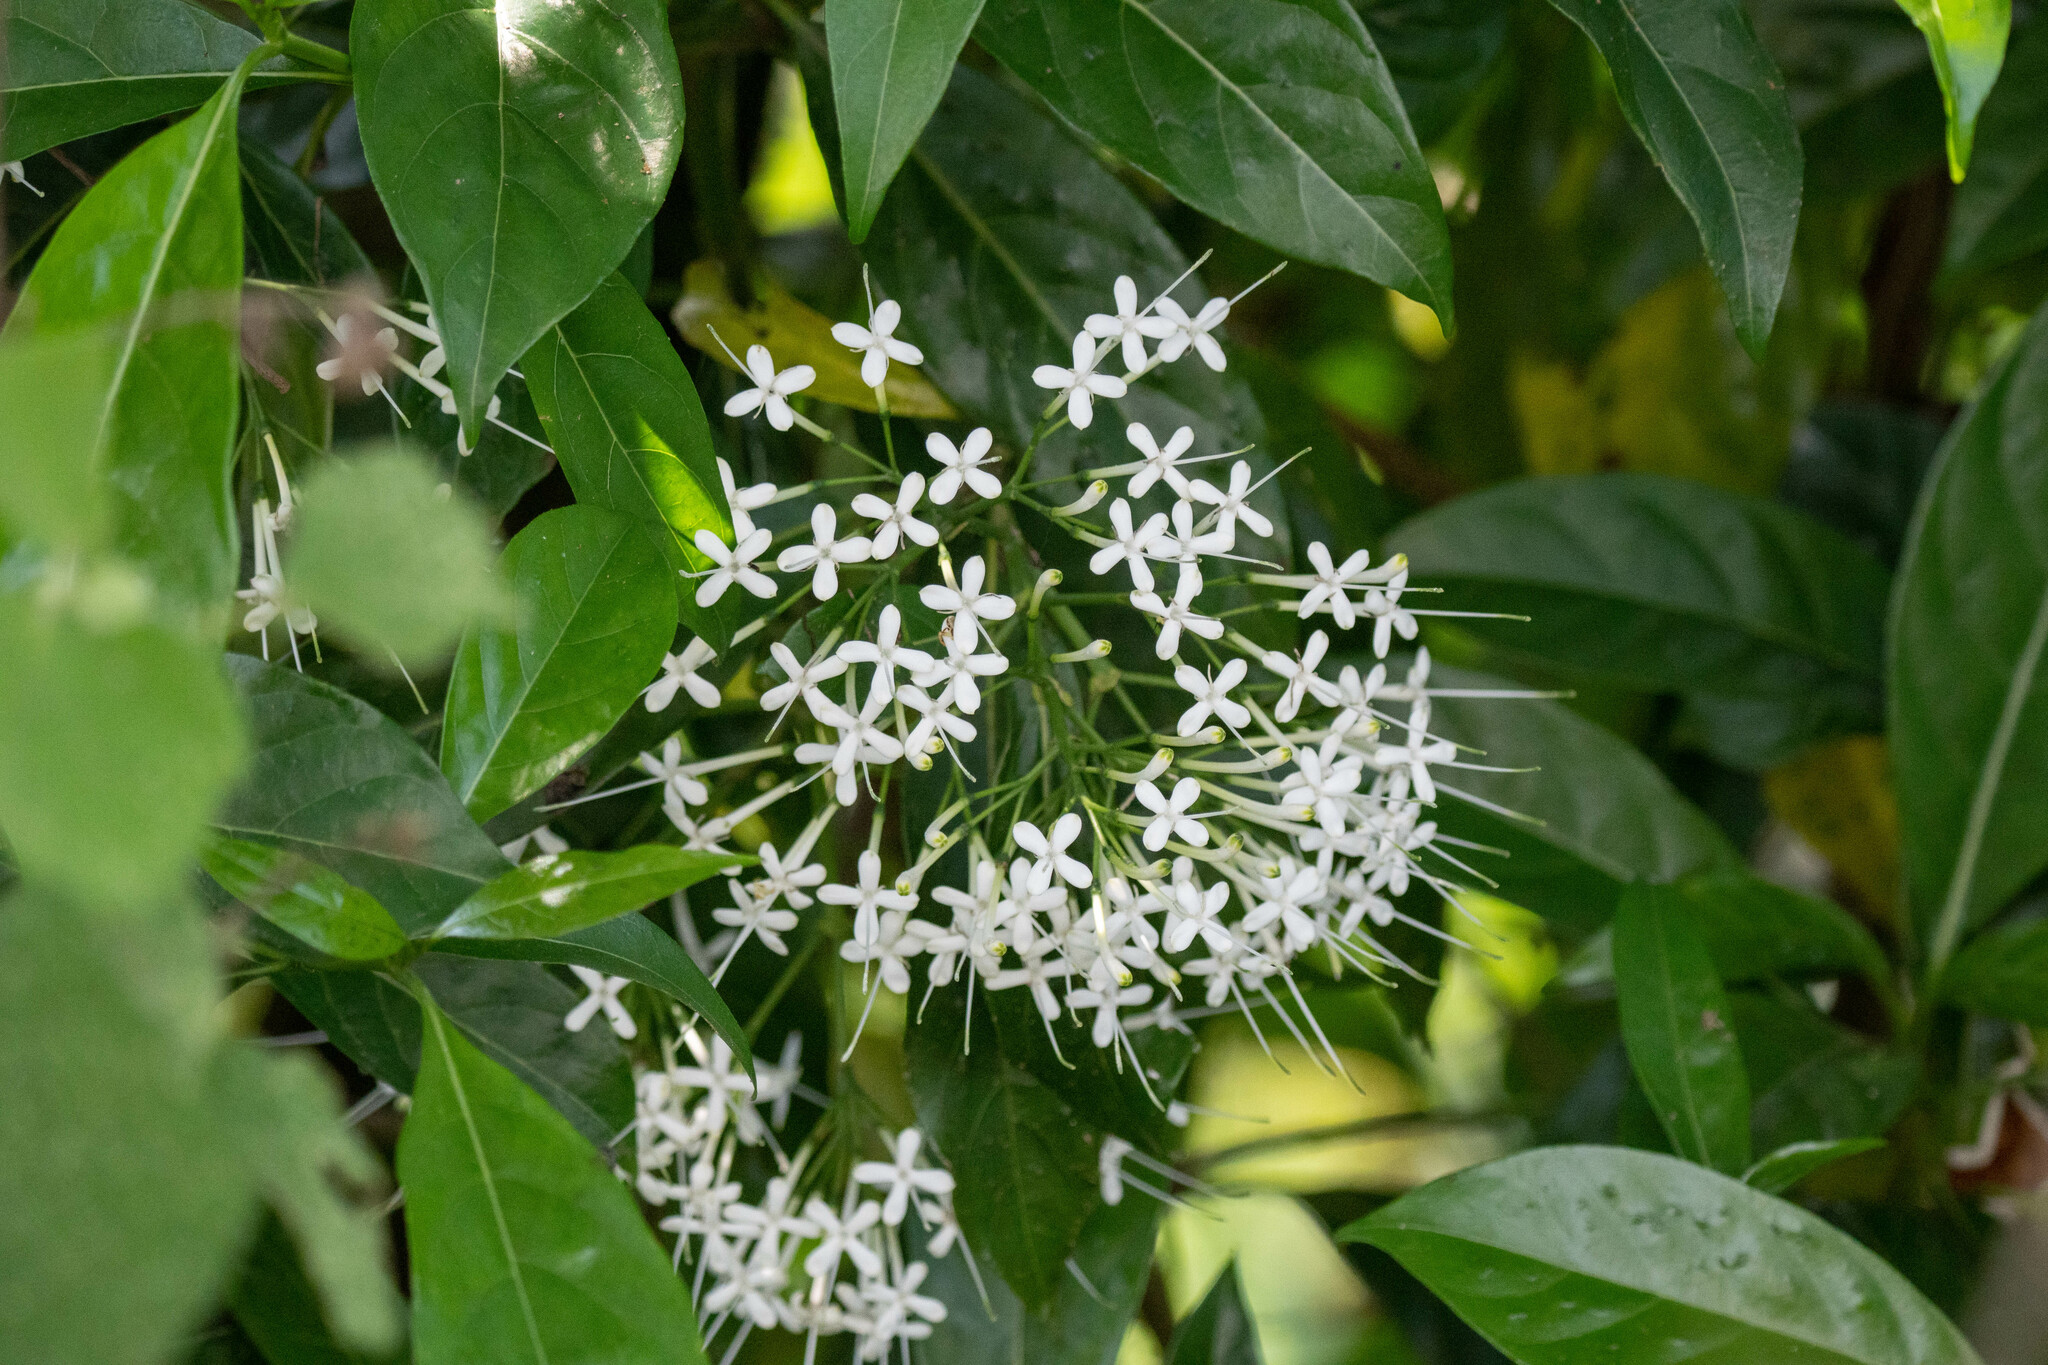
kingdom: Plantae
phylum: Tracheophyta
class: Magnoliopsida
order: Gentianales
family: Rubiaceae
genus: Pavetta
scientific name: Pavetta hongkongensis
